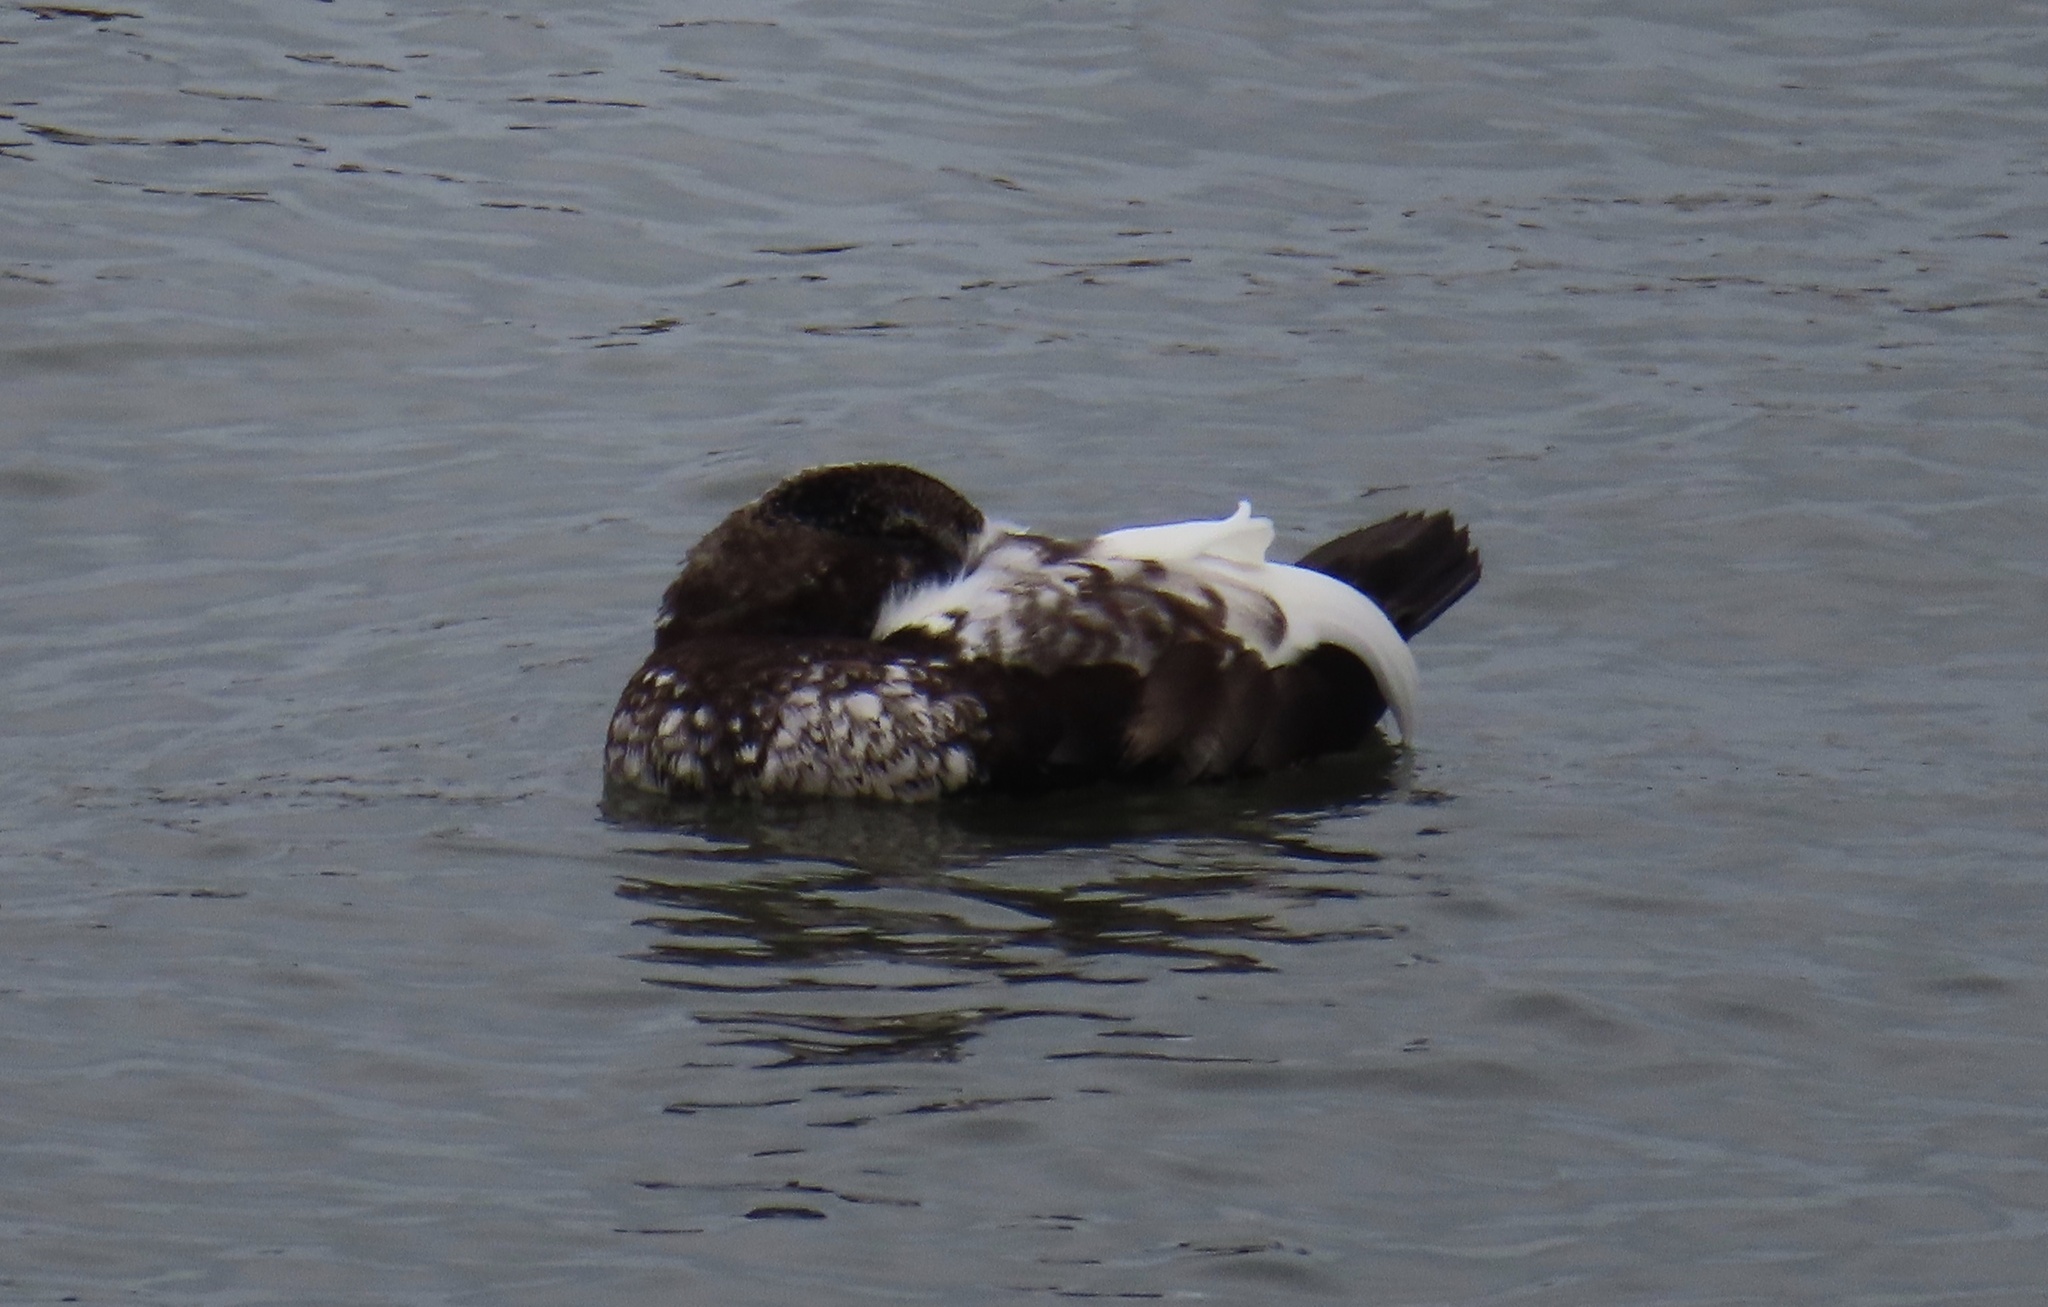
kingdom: Animalia
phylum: Chordata
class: Aves
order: Anseriformes
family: Anatidae
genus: Somateria
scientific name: Somateria mollissima
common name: Common eider
